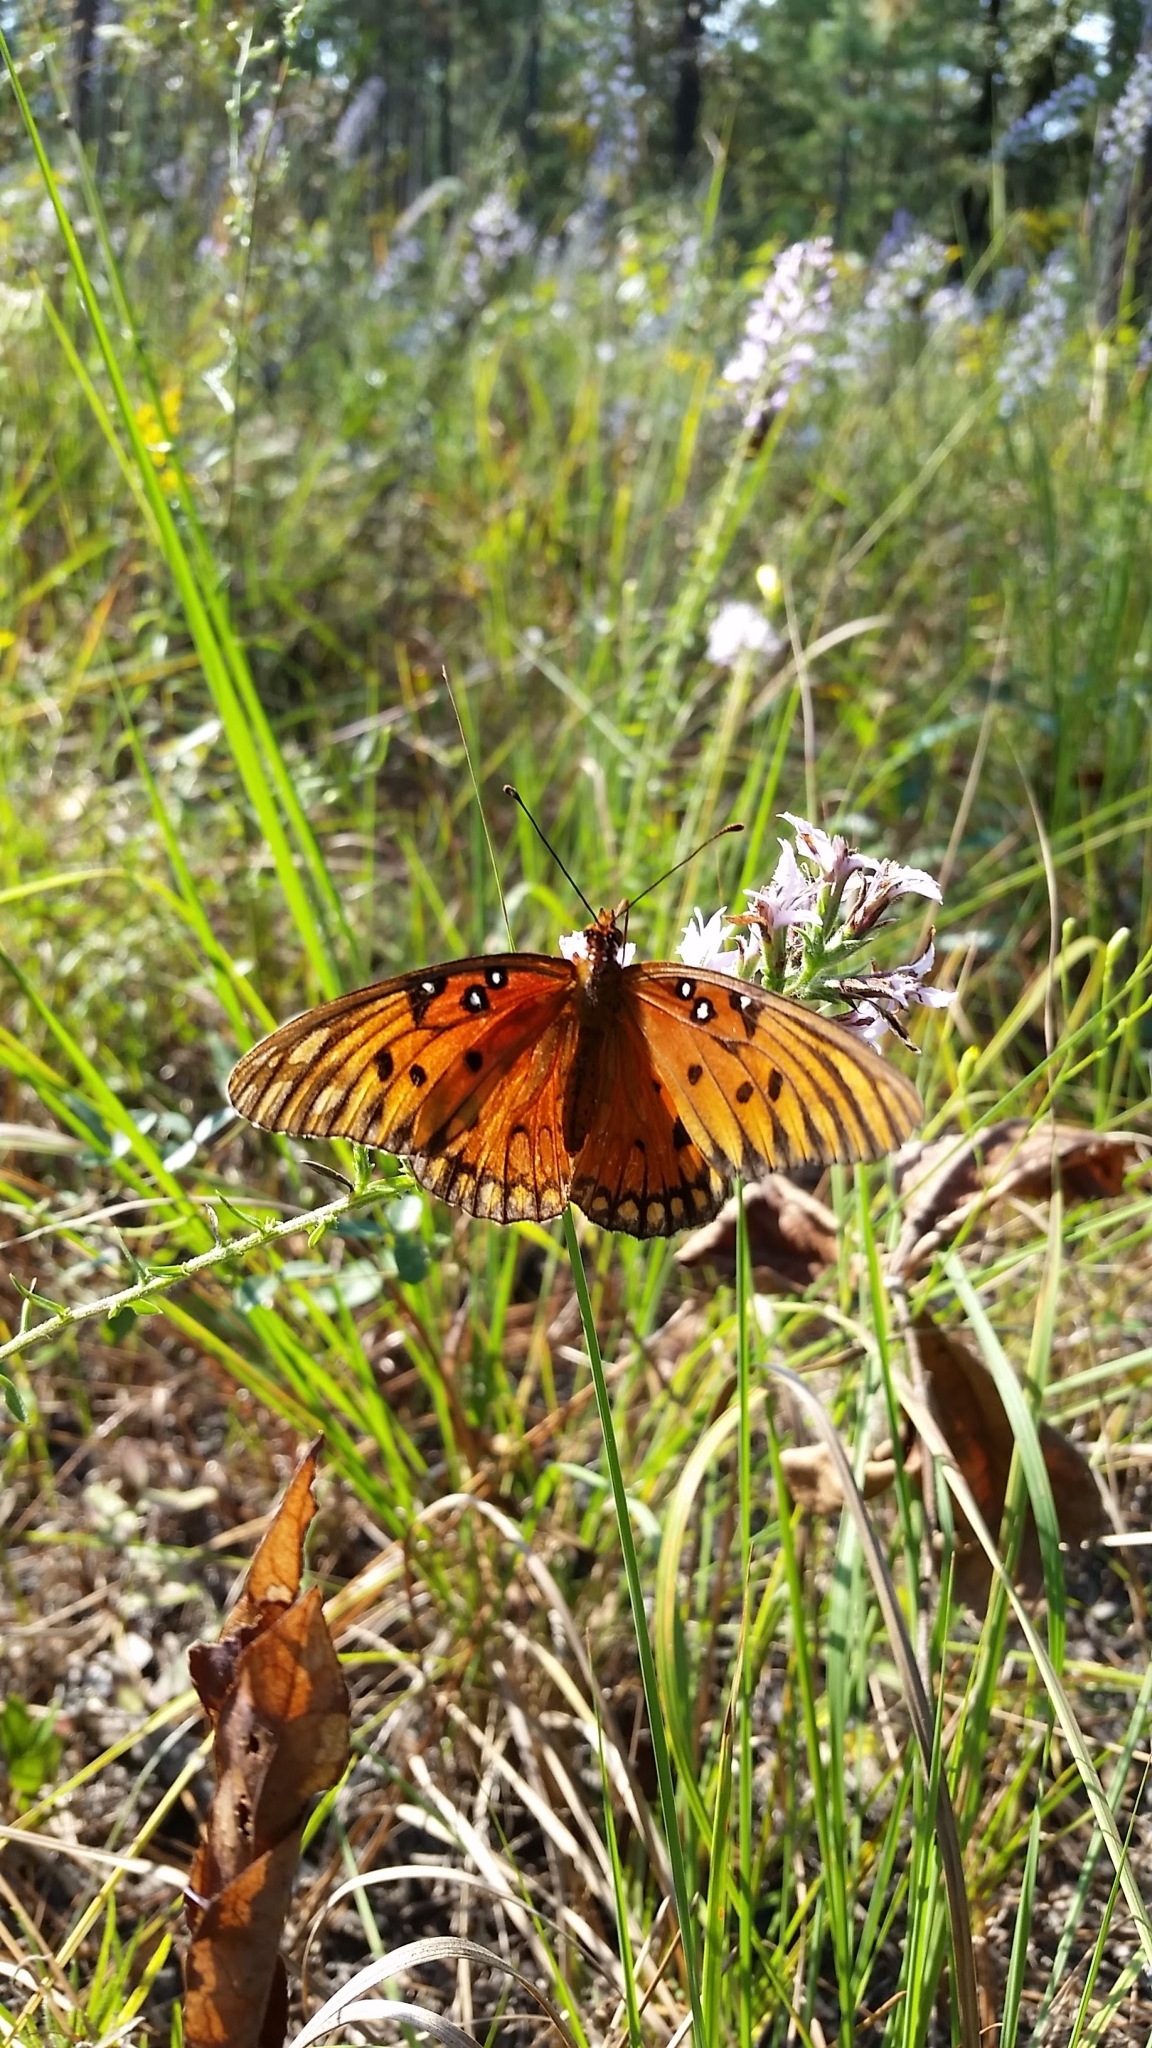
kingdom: Animalia
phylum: Arthropoda
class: Insecta
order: Lepidoptera
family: Nymphalidae
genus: Dione
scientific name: Dione vanillae
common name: Gulf fritillary
